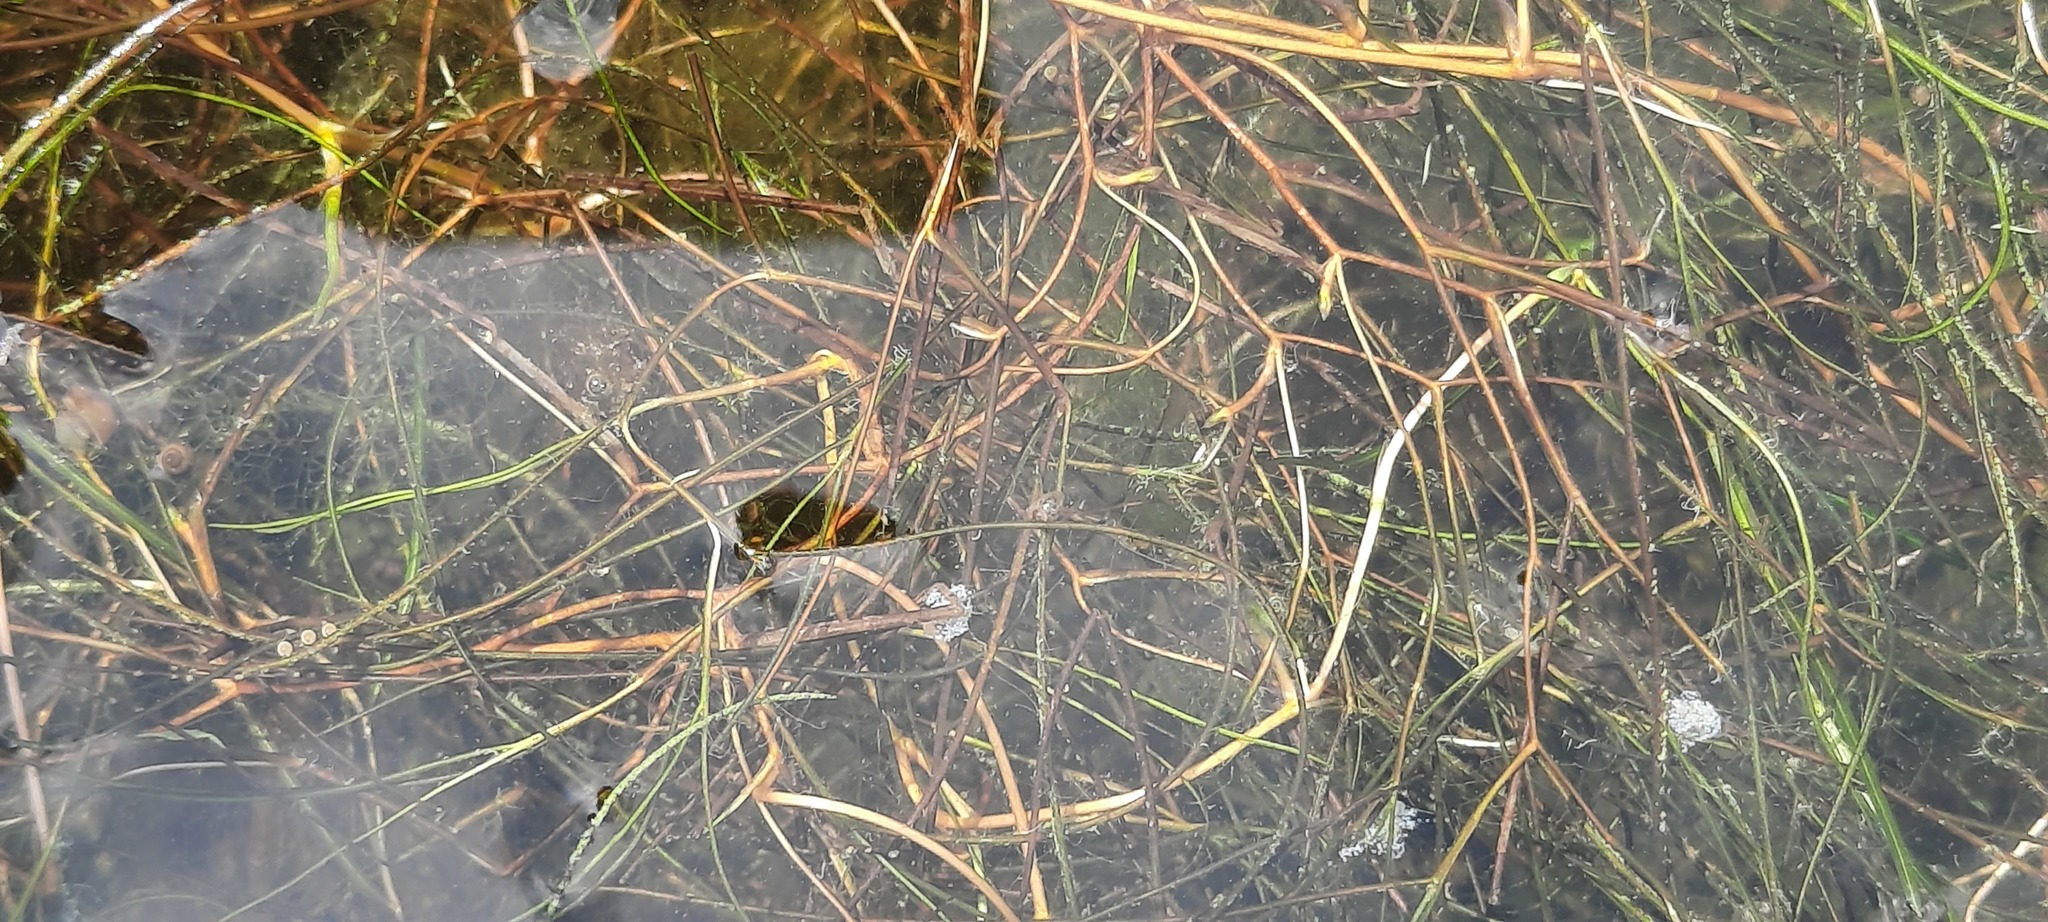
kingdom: Plantae
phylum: Tracheophyta
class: Liliopsida
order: Alismatales
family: Potamogetonaceae
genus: Stuckenia
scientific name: Stuckenia pectinata
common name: Sago pondweed
